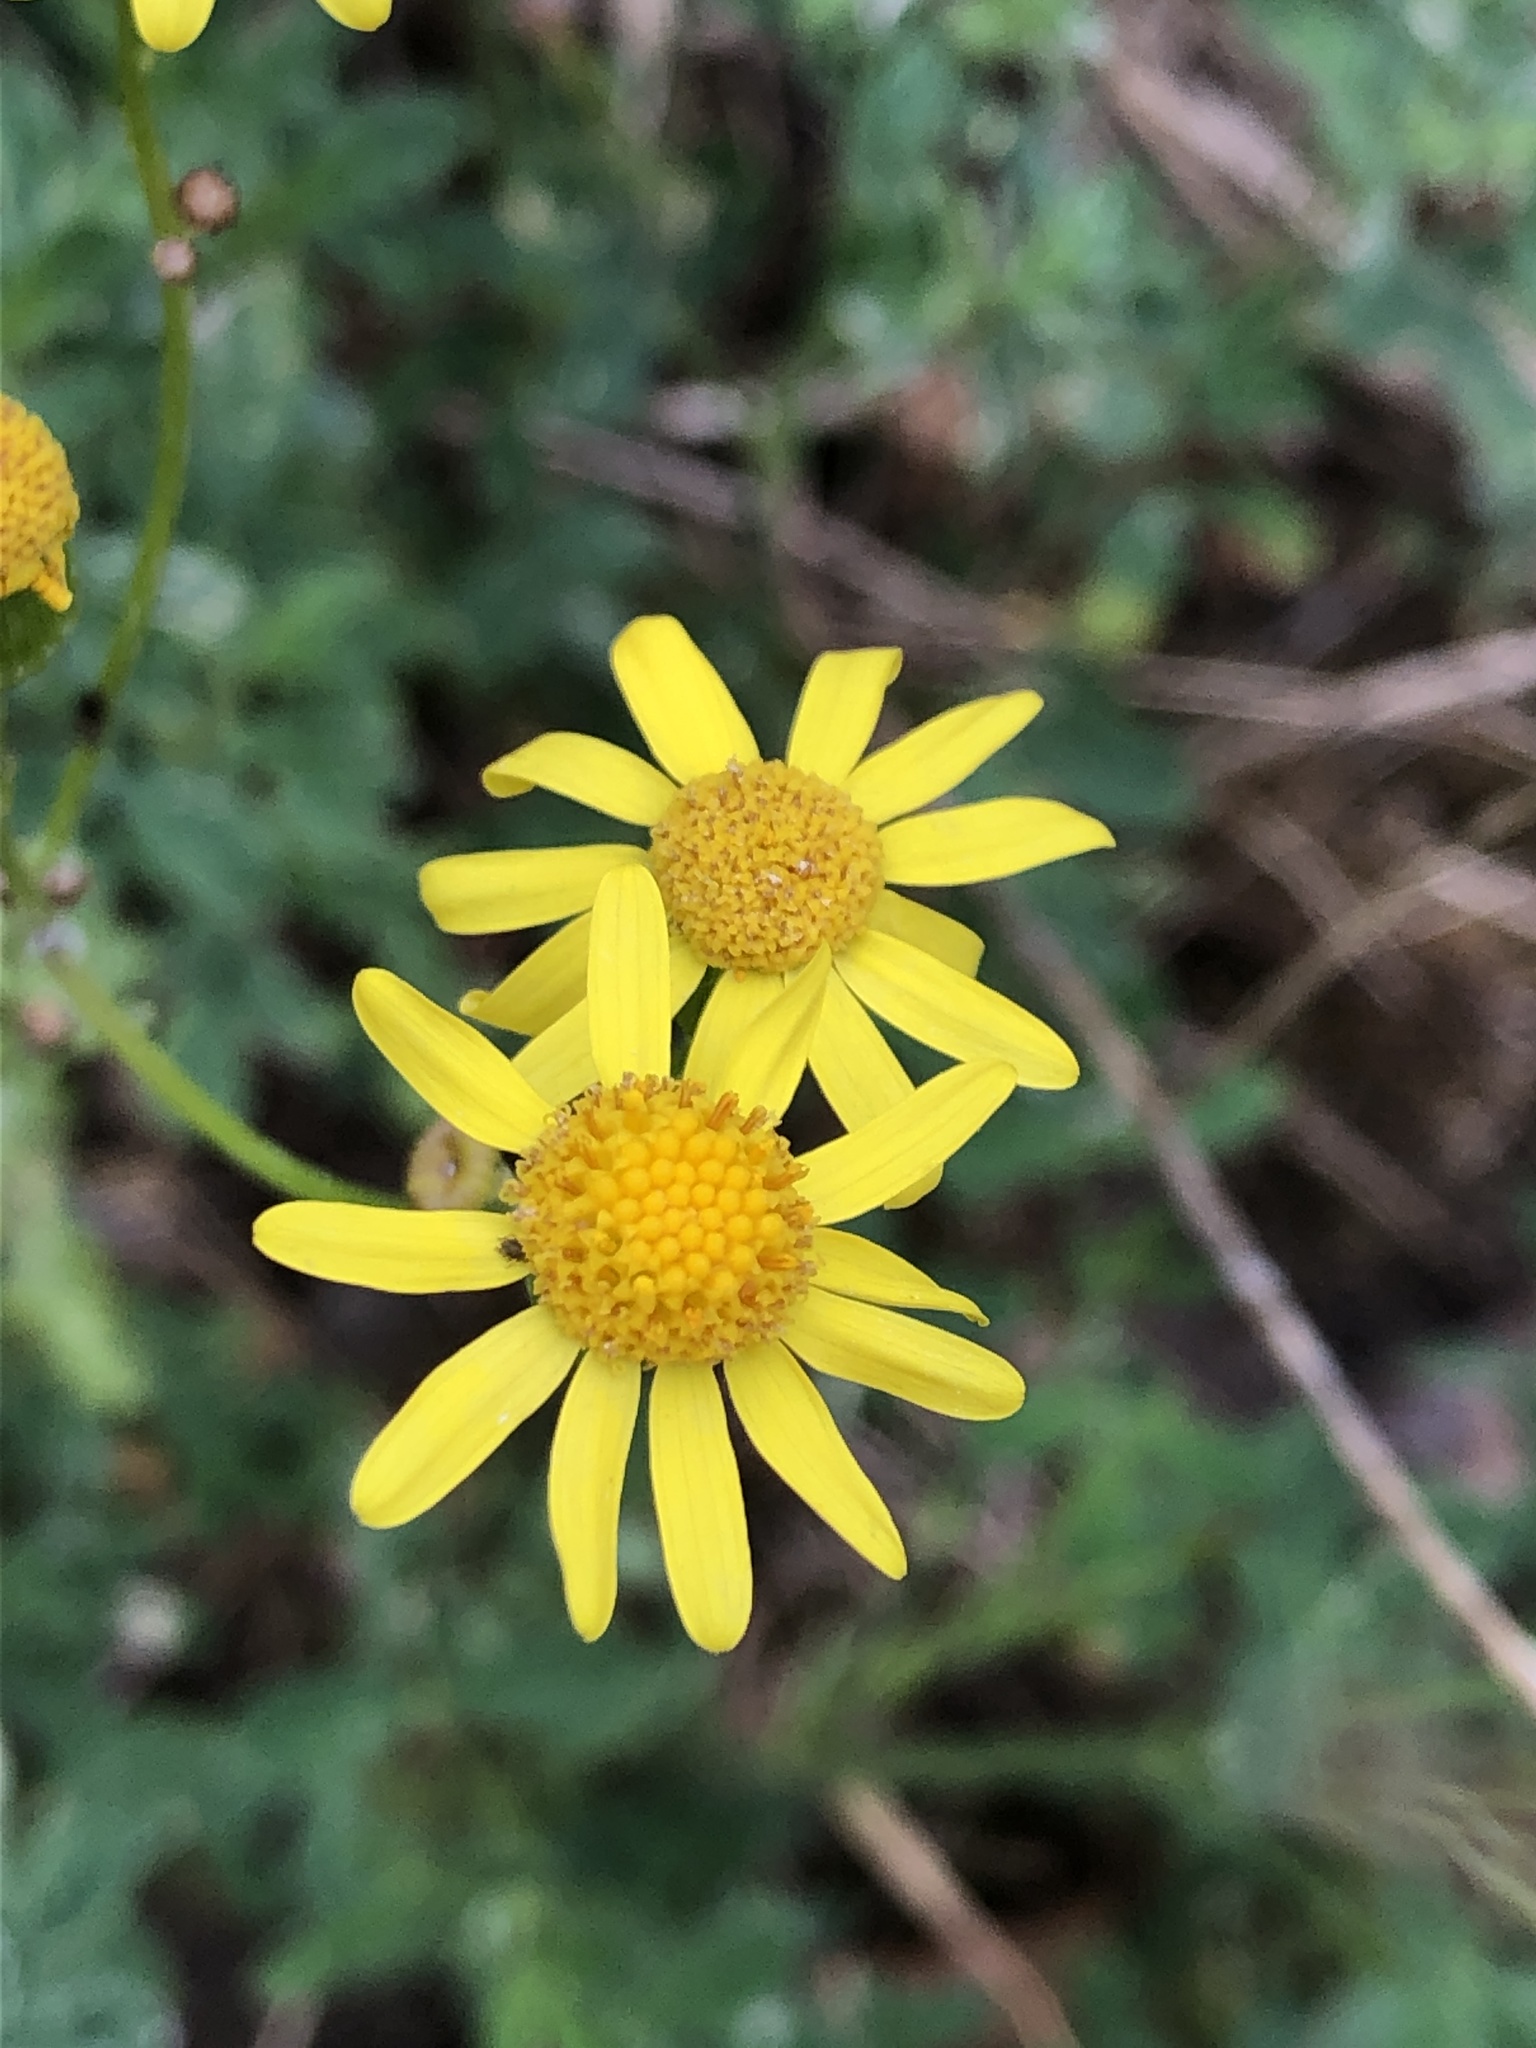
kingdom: Plantae
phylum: Tracheophyta
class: Magnoliopsida
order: Asterales
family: Asteraceae
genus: Senecio
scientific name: Senecio vernalis
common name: Eastern groundsel
